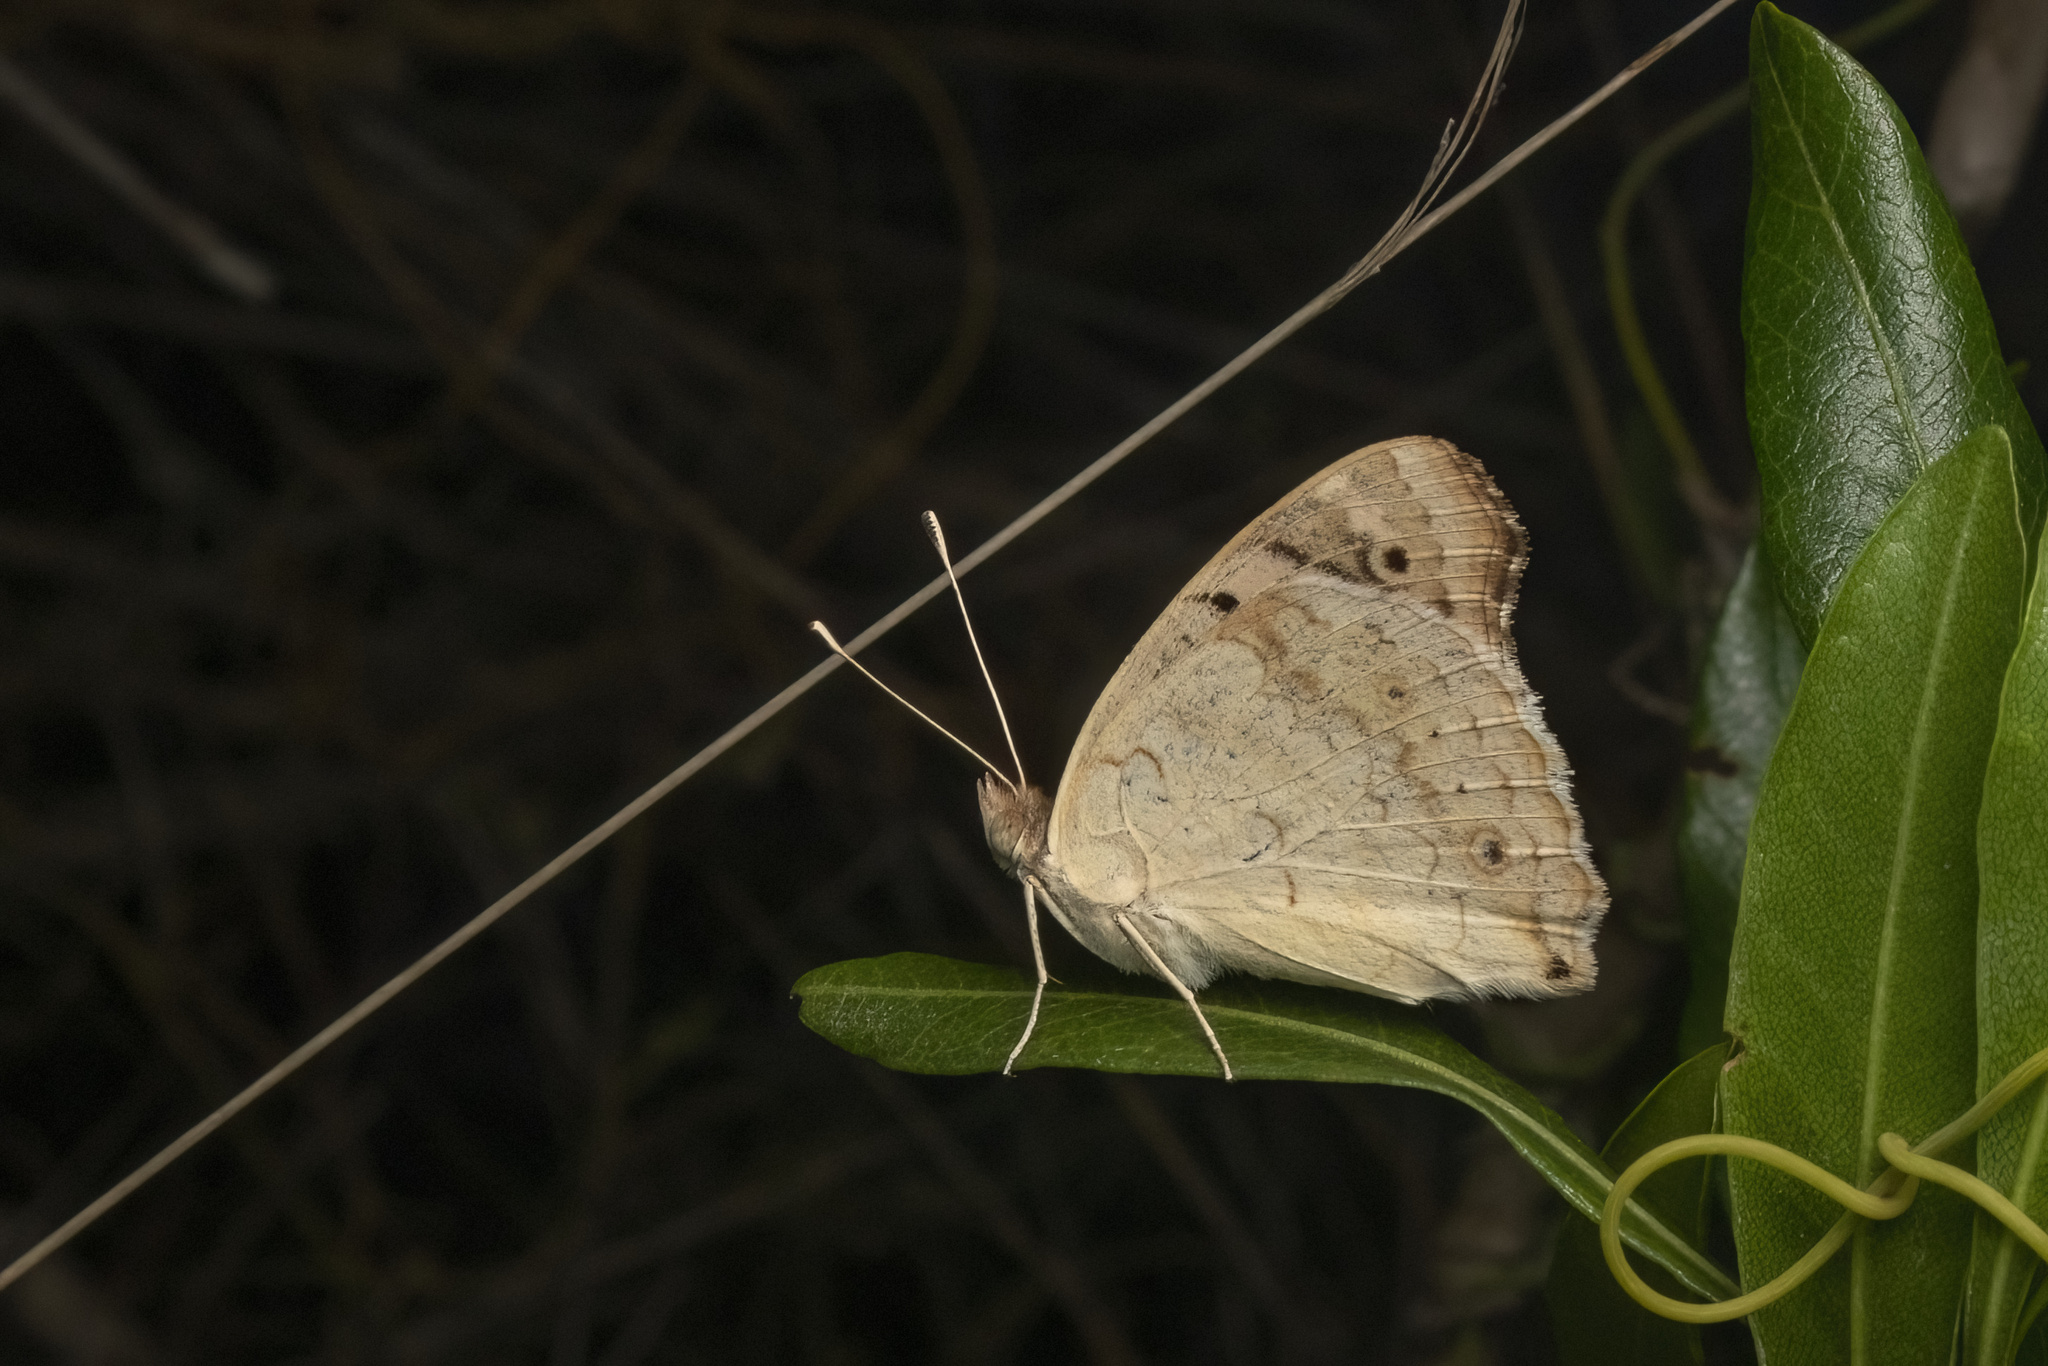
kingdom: Animalia
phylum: Arthropoda
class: Insecta
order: Lepidoptera
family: Nymphalidae
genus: Junonia
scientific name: Junonia orithya
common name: Blue pansy
